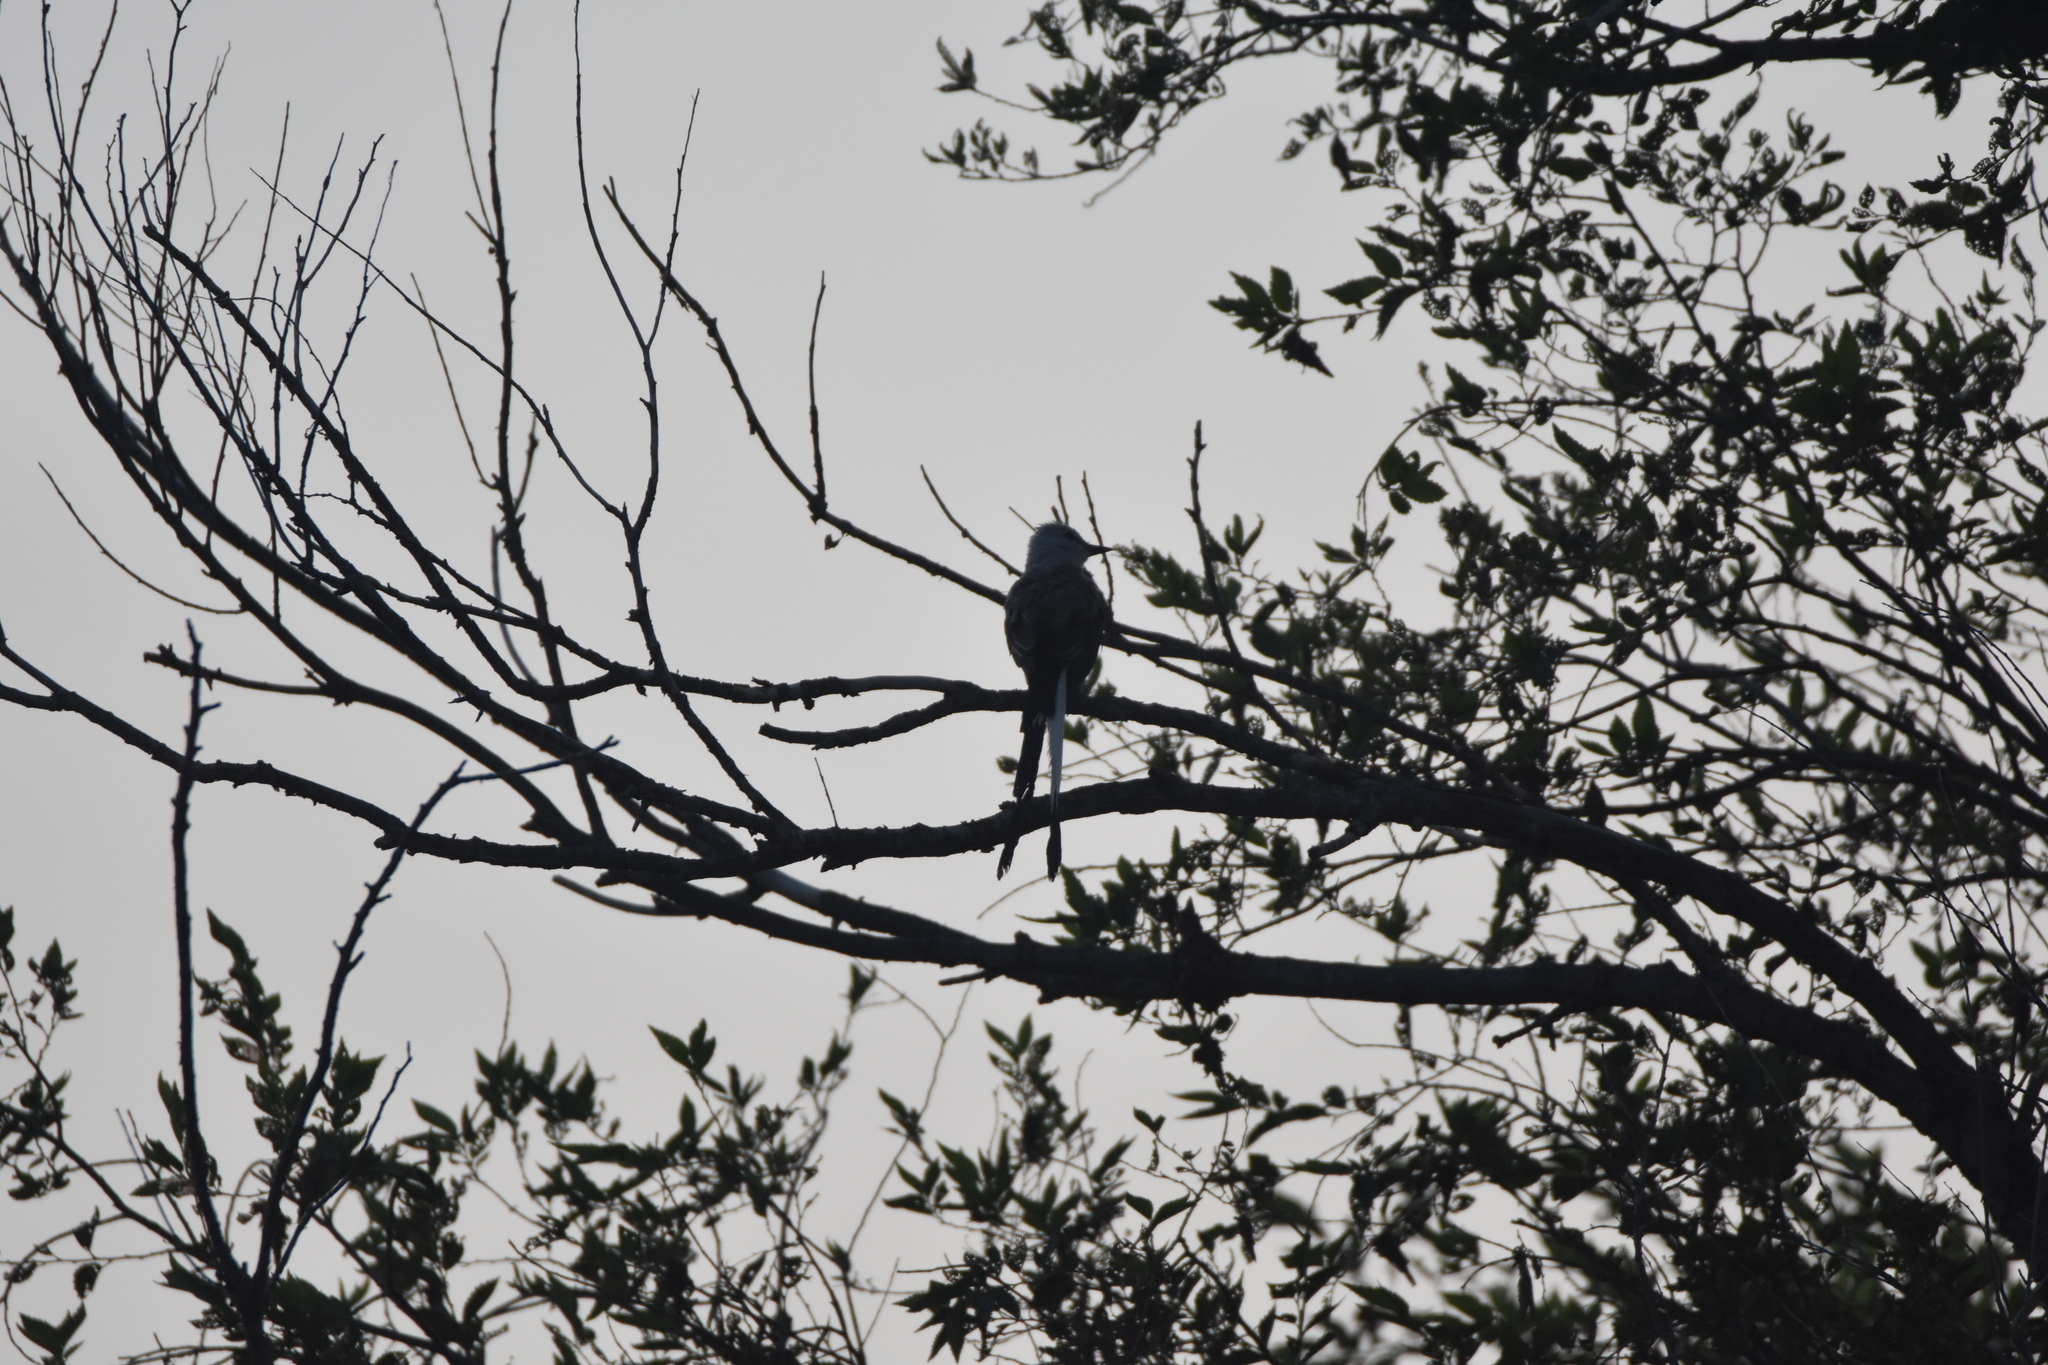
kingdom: Animalia
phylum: Chordata
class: Aves
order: Passeriformes
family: Tyrannidae
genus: Tyrannus
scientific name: Tyrannus forficatus
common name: Scissor-tailed flycatcher
